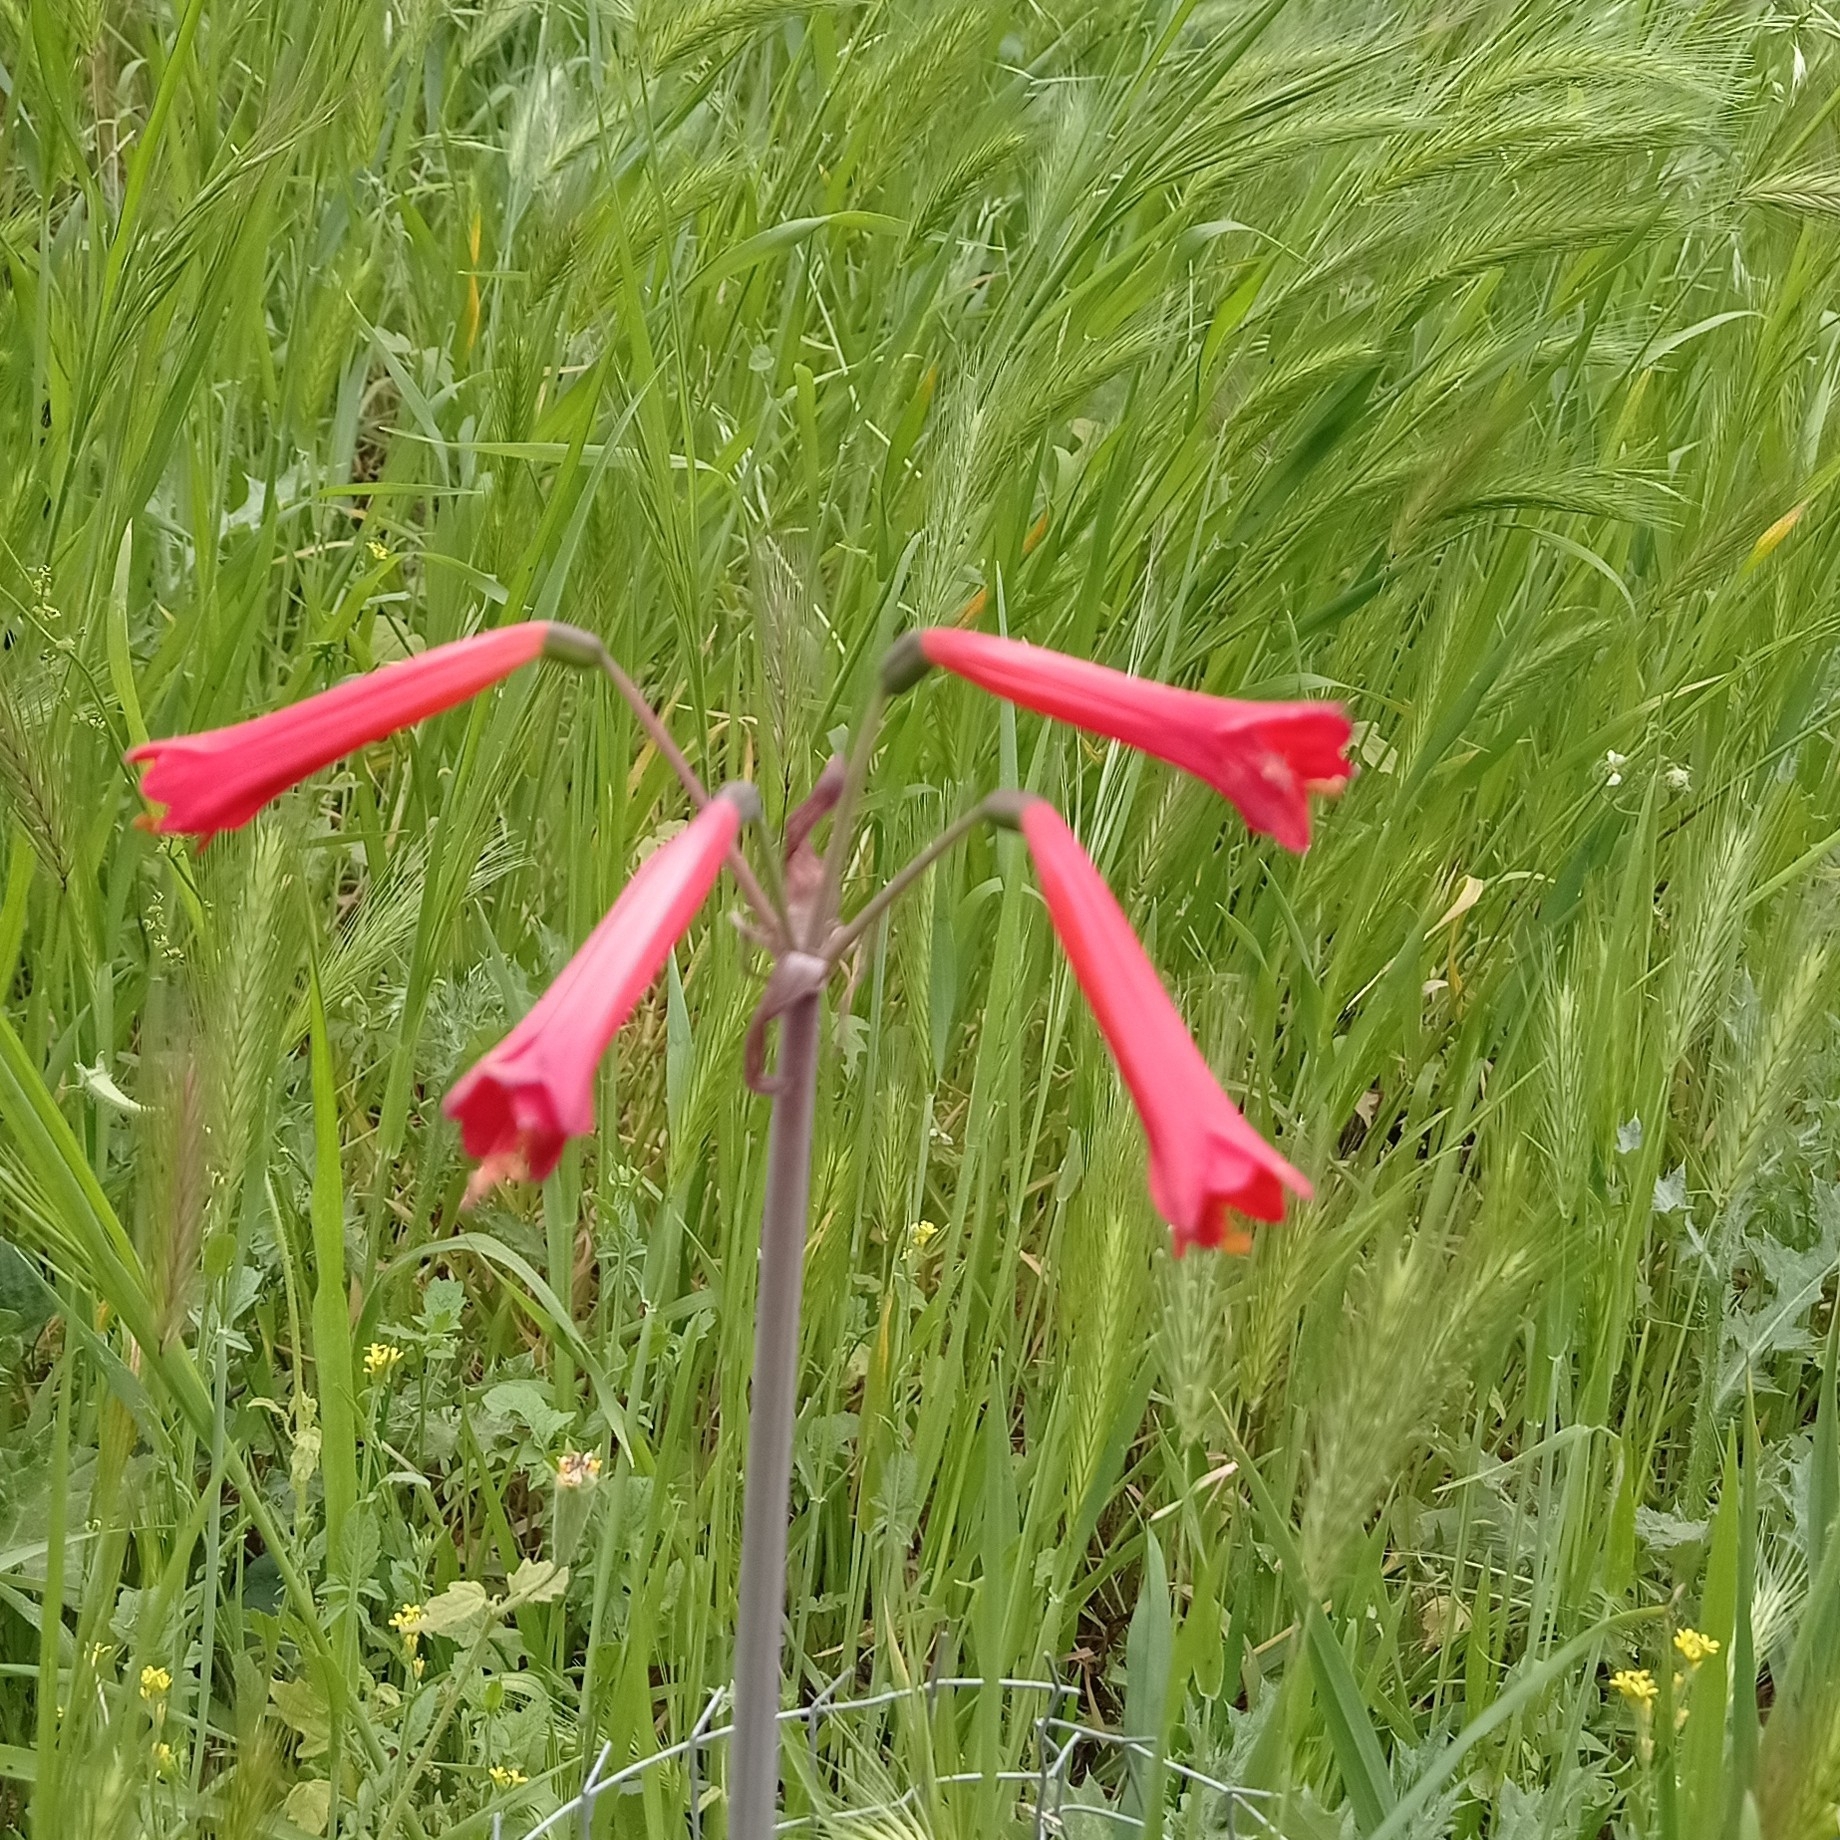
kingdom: Plantae
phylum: Tracheophyta
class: Liliopsida
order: Asparagales
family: Amaryllidaceae
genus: Phycella
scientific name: Phycella cyrtanthoides
